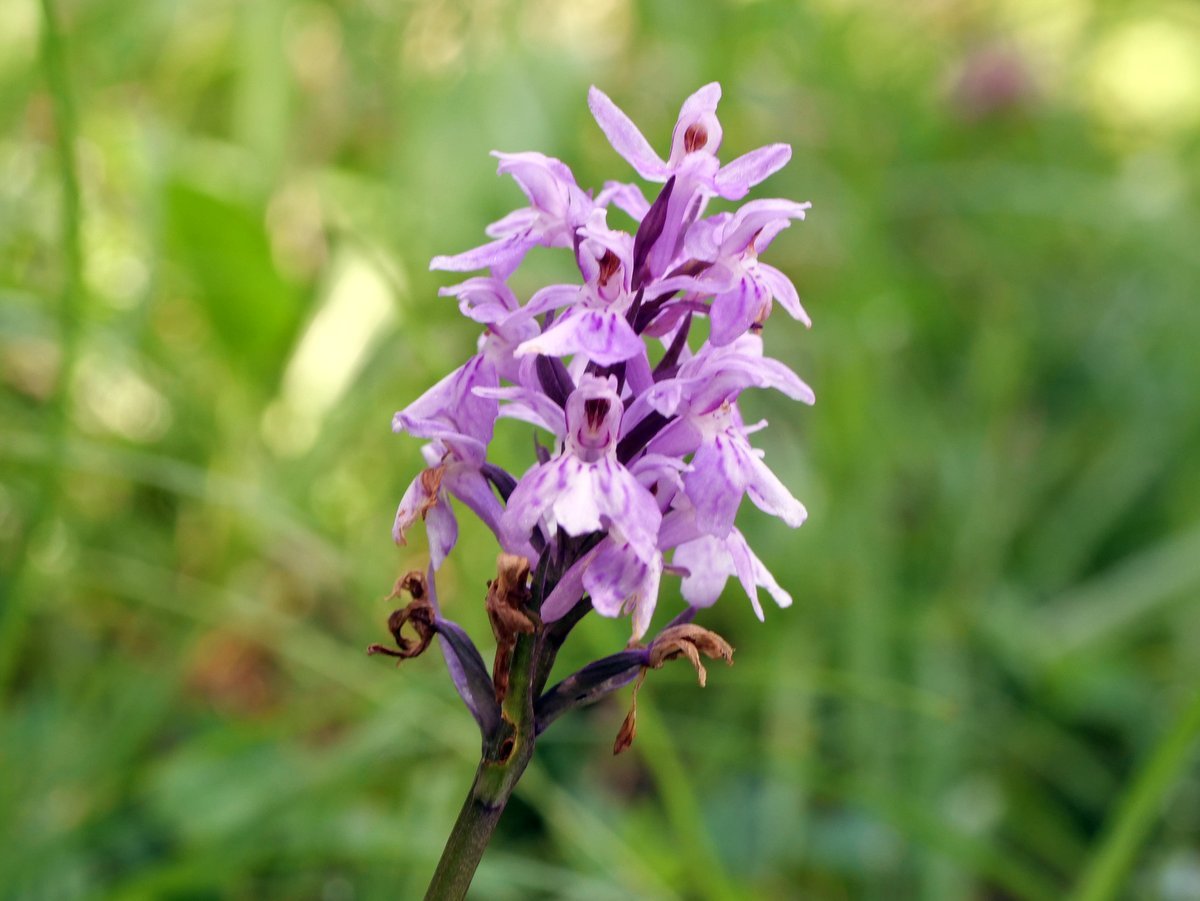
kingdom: Plantae
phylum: Tracheophyta
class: Liliopsida
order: Asparagales
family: Orchidaceae
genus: Dactylorhiza
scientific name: Dactylorhiza maculata
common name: Heath spotted-orchid
